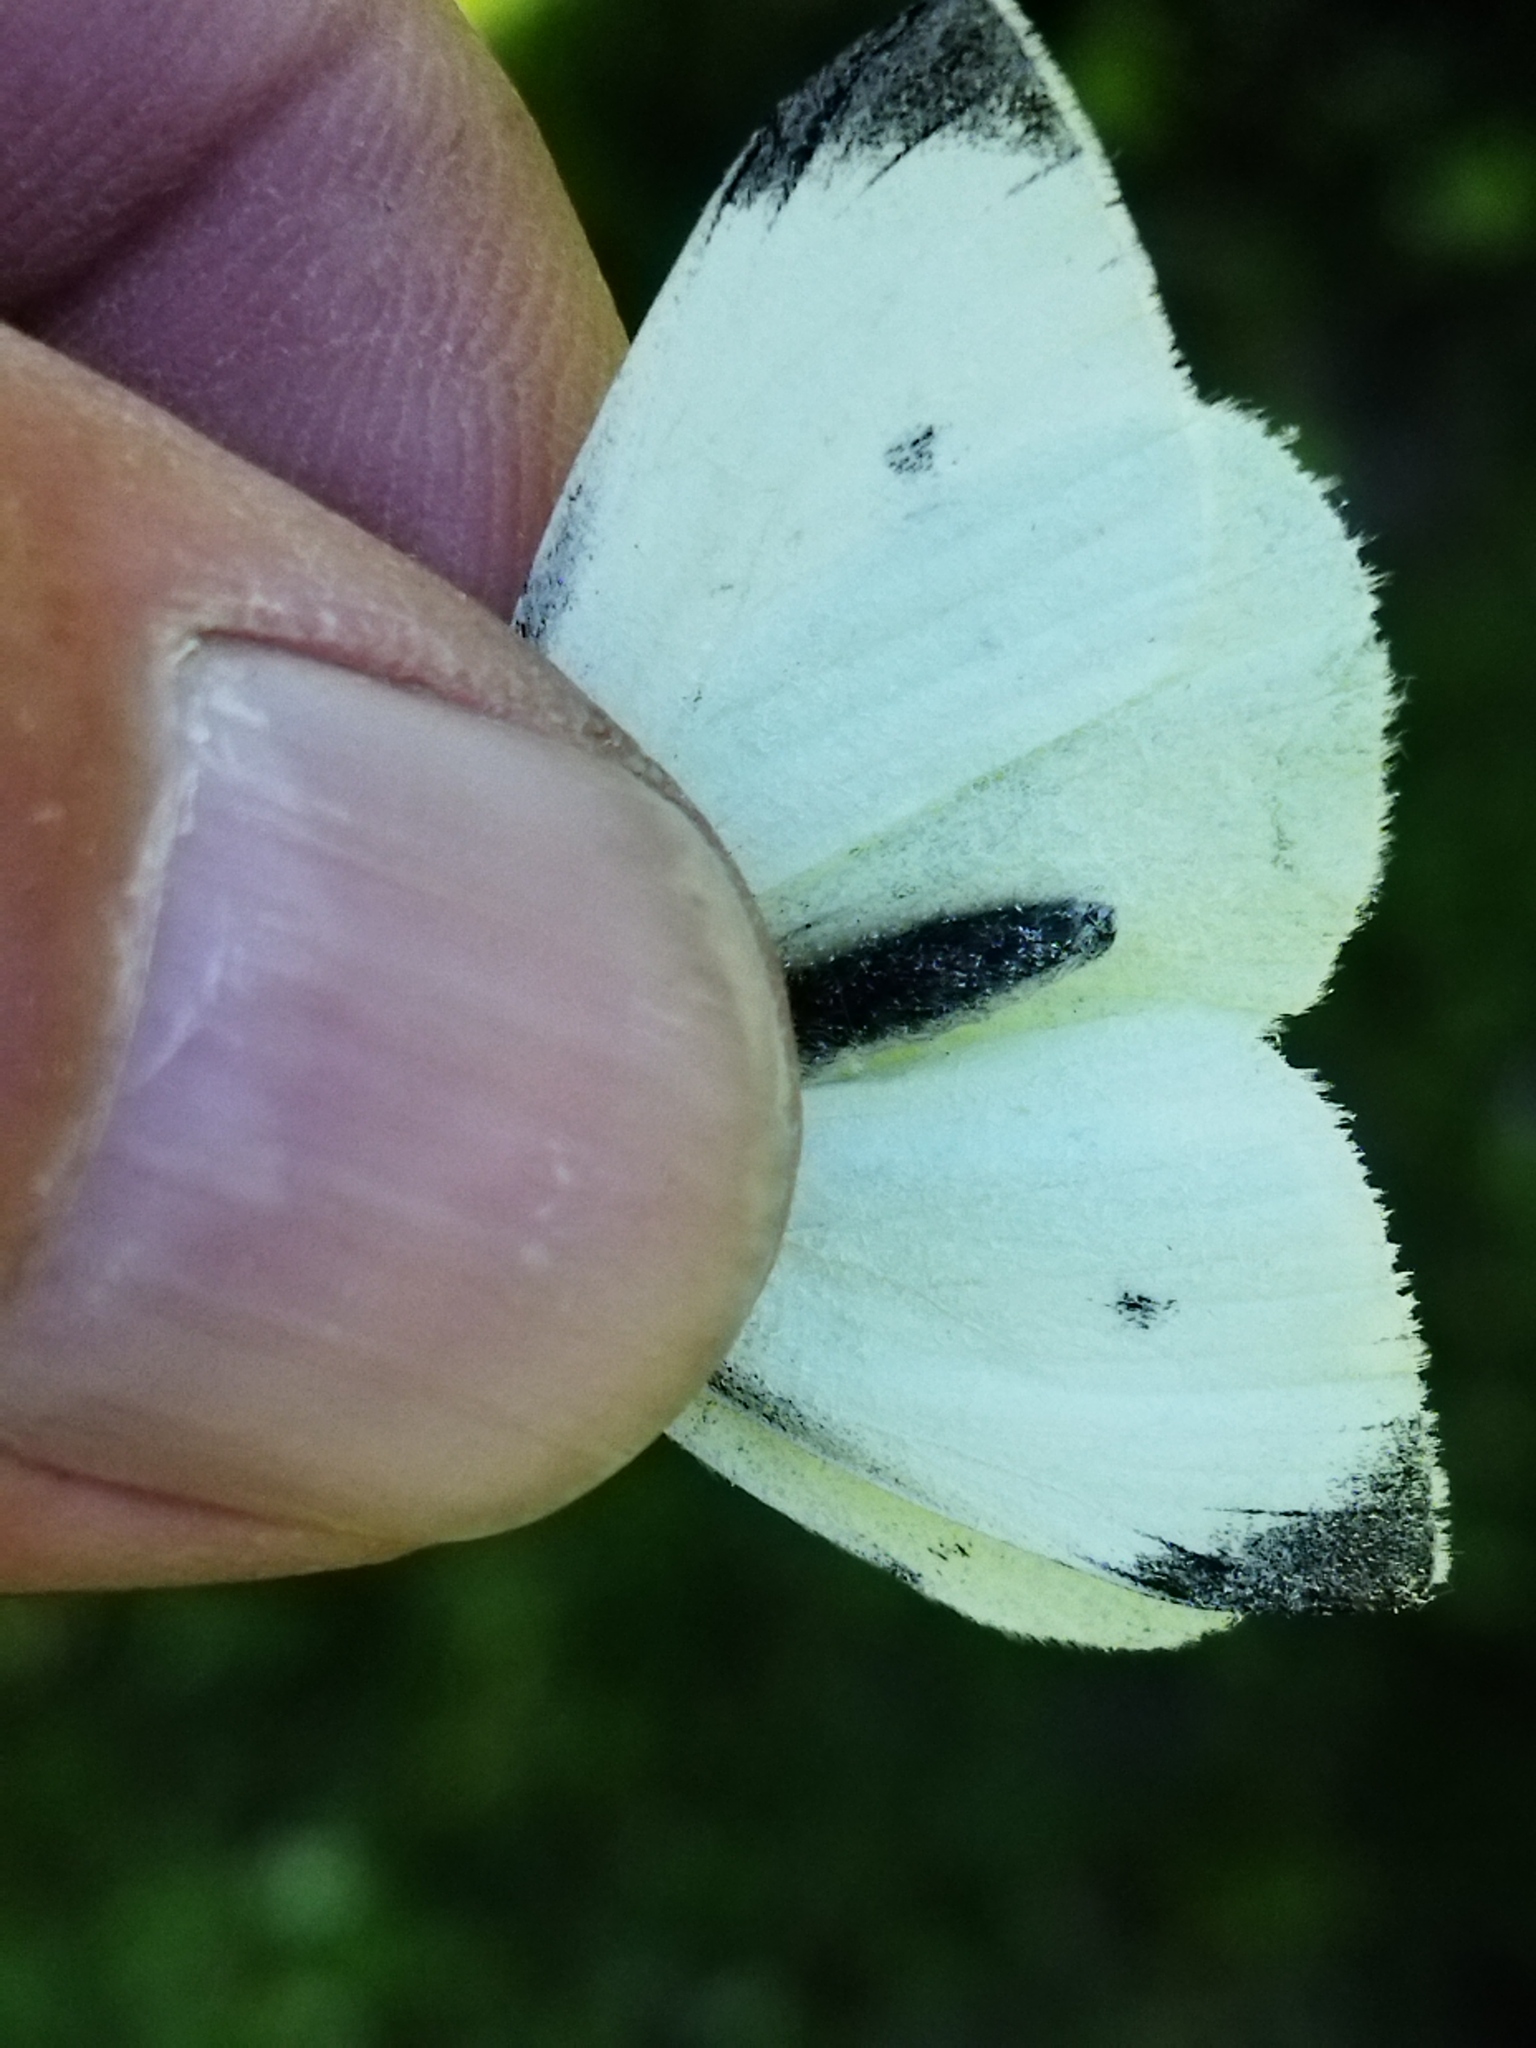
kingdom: Animalia
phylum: Arthropoda
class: Insecta
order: Lepidoptera
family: Pieridae
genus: Pieris
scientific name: Pieris rapae
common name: Small white
